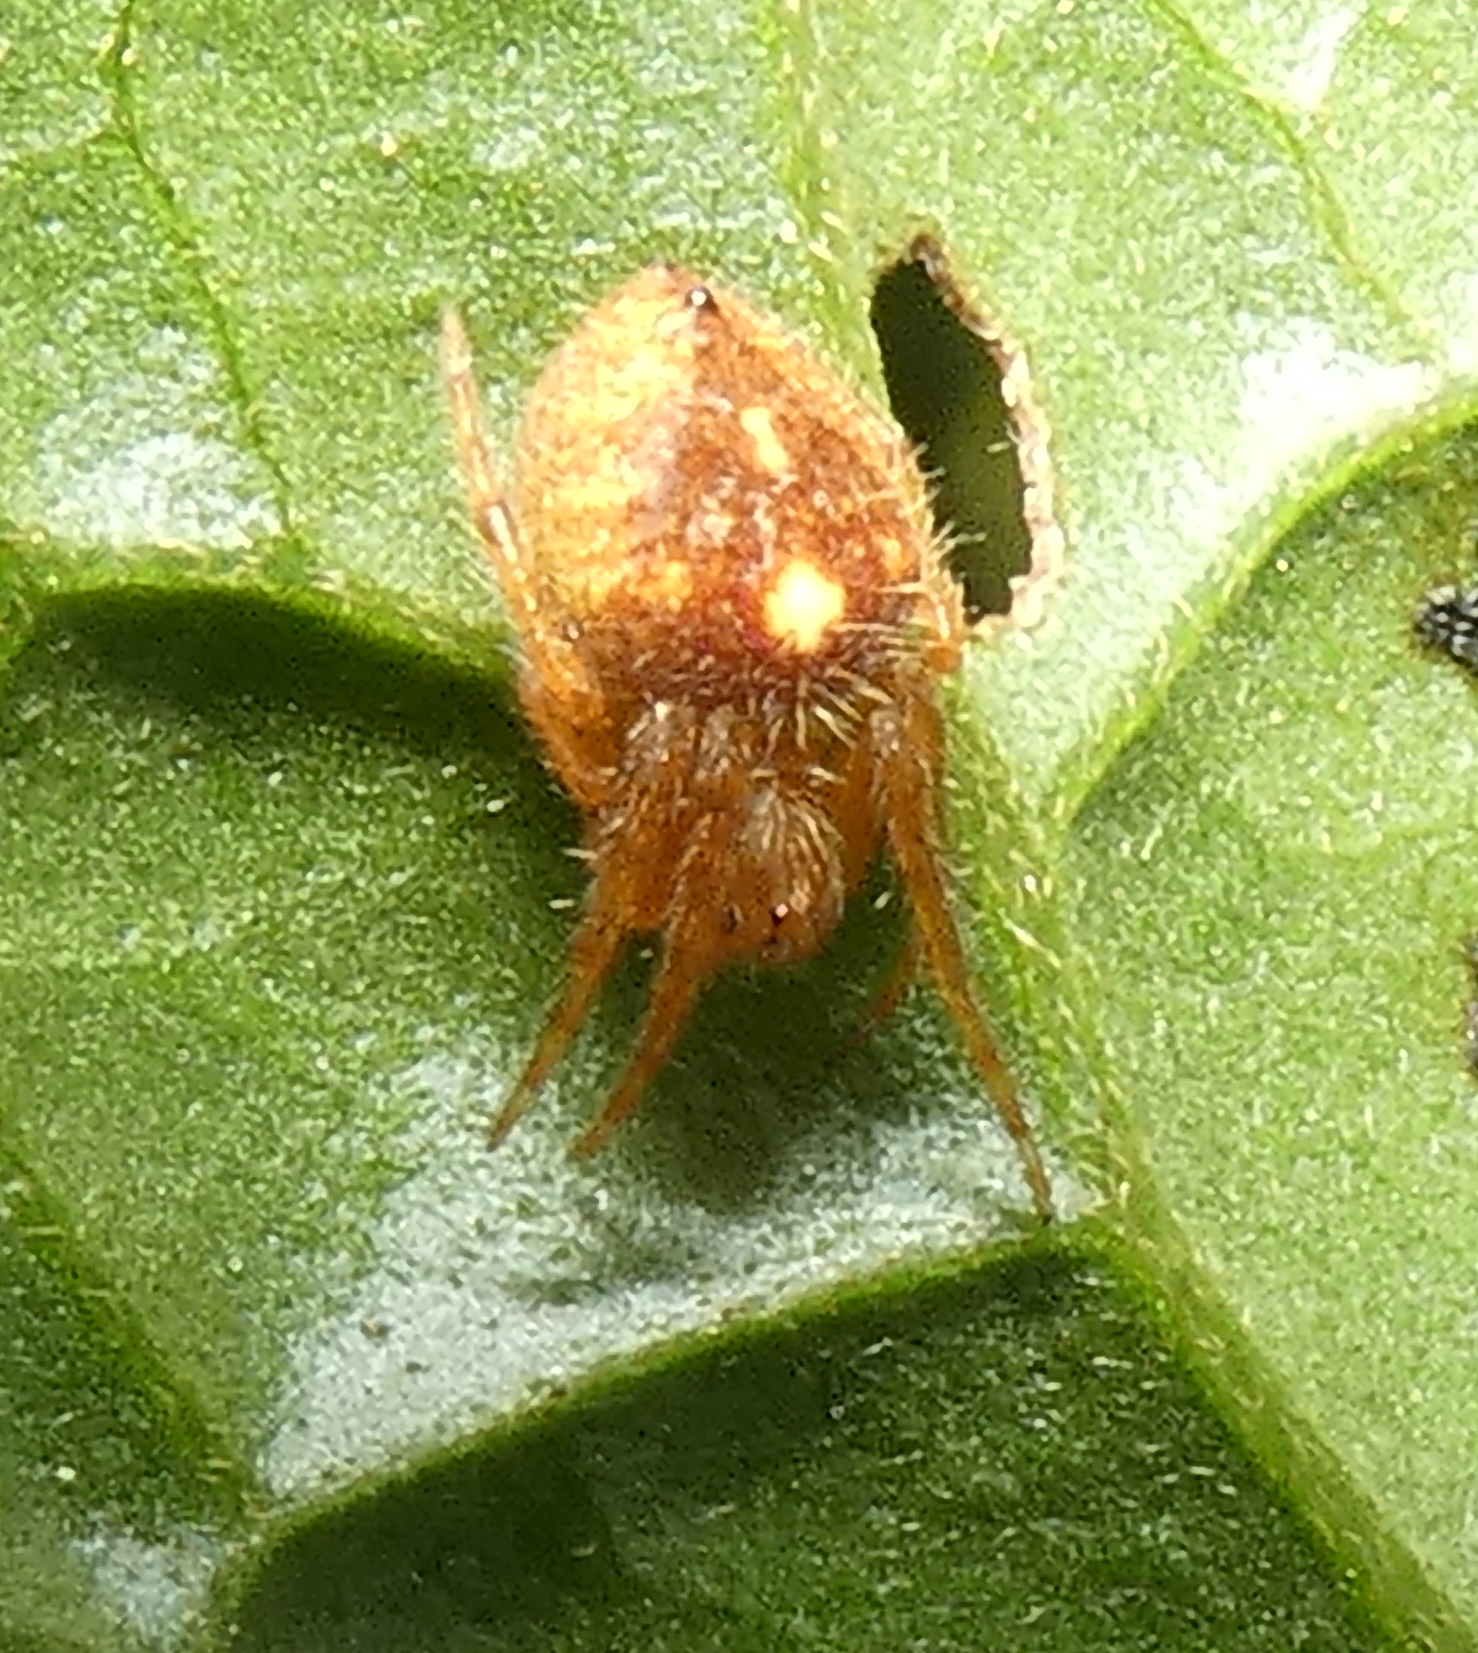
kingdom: Animalia
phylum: Arthropoda
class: Arachnida
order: Araneae
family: Araneidae
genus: Eriophora
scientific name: Eriophora edax
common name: Orb weavers
